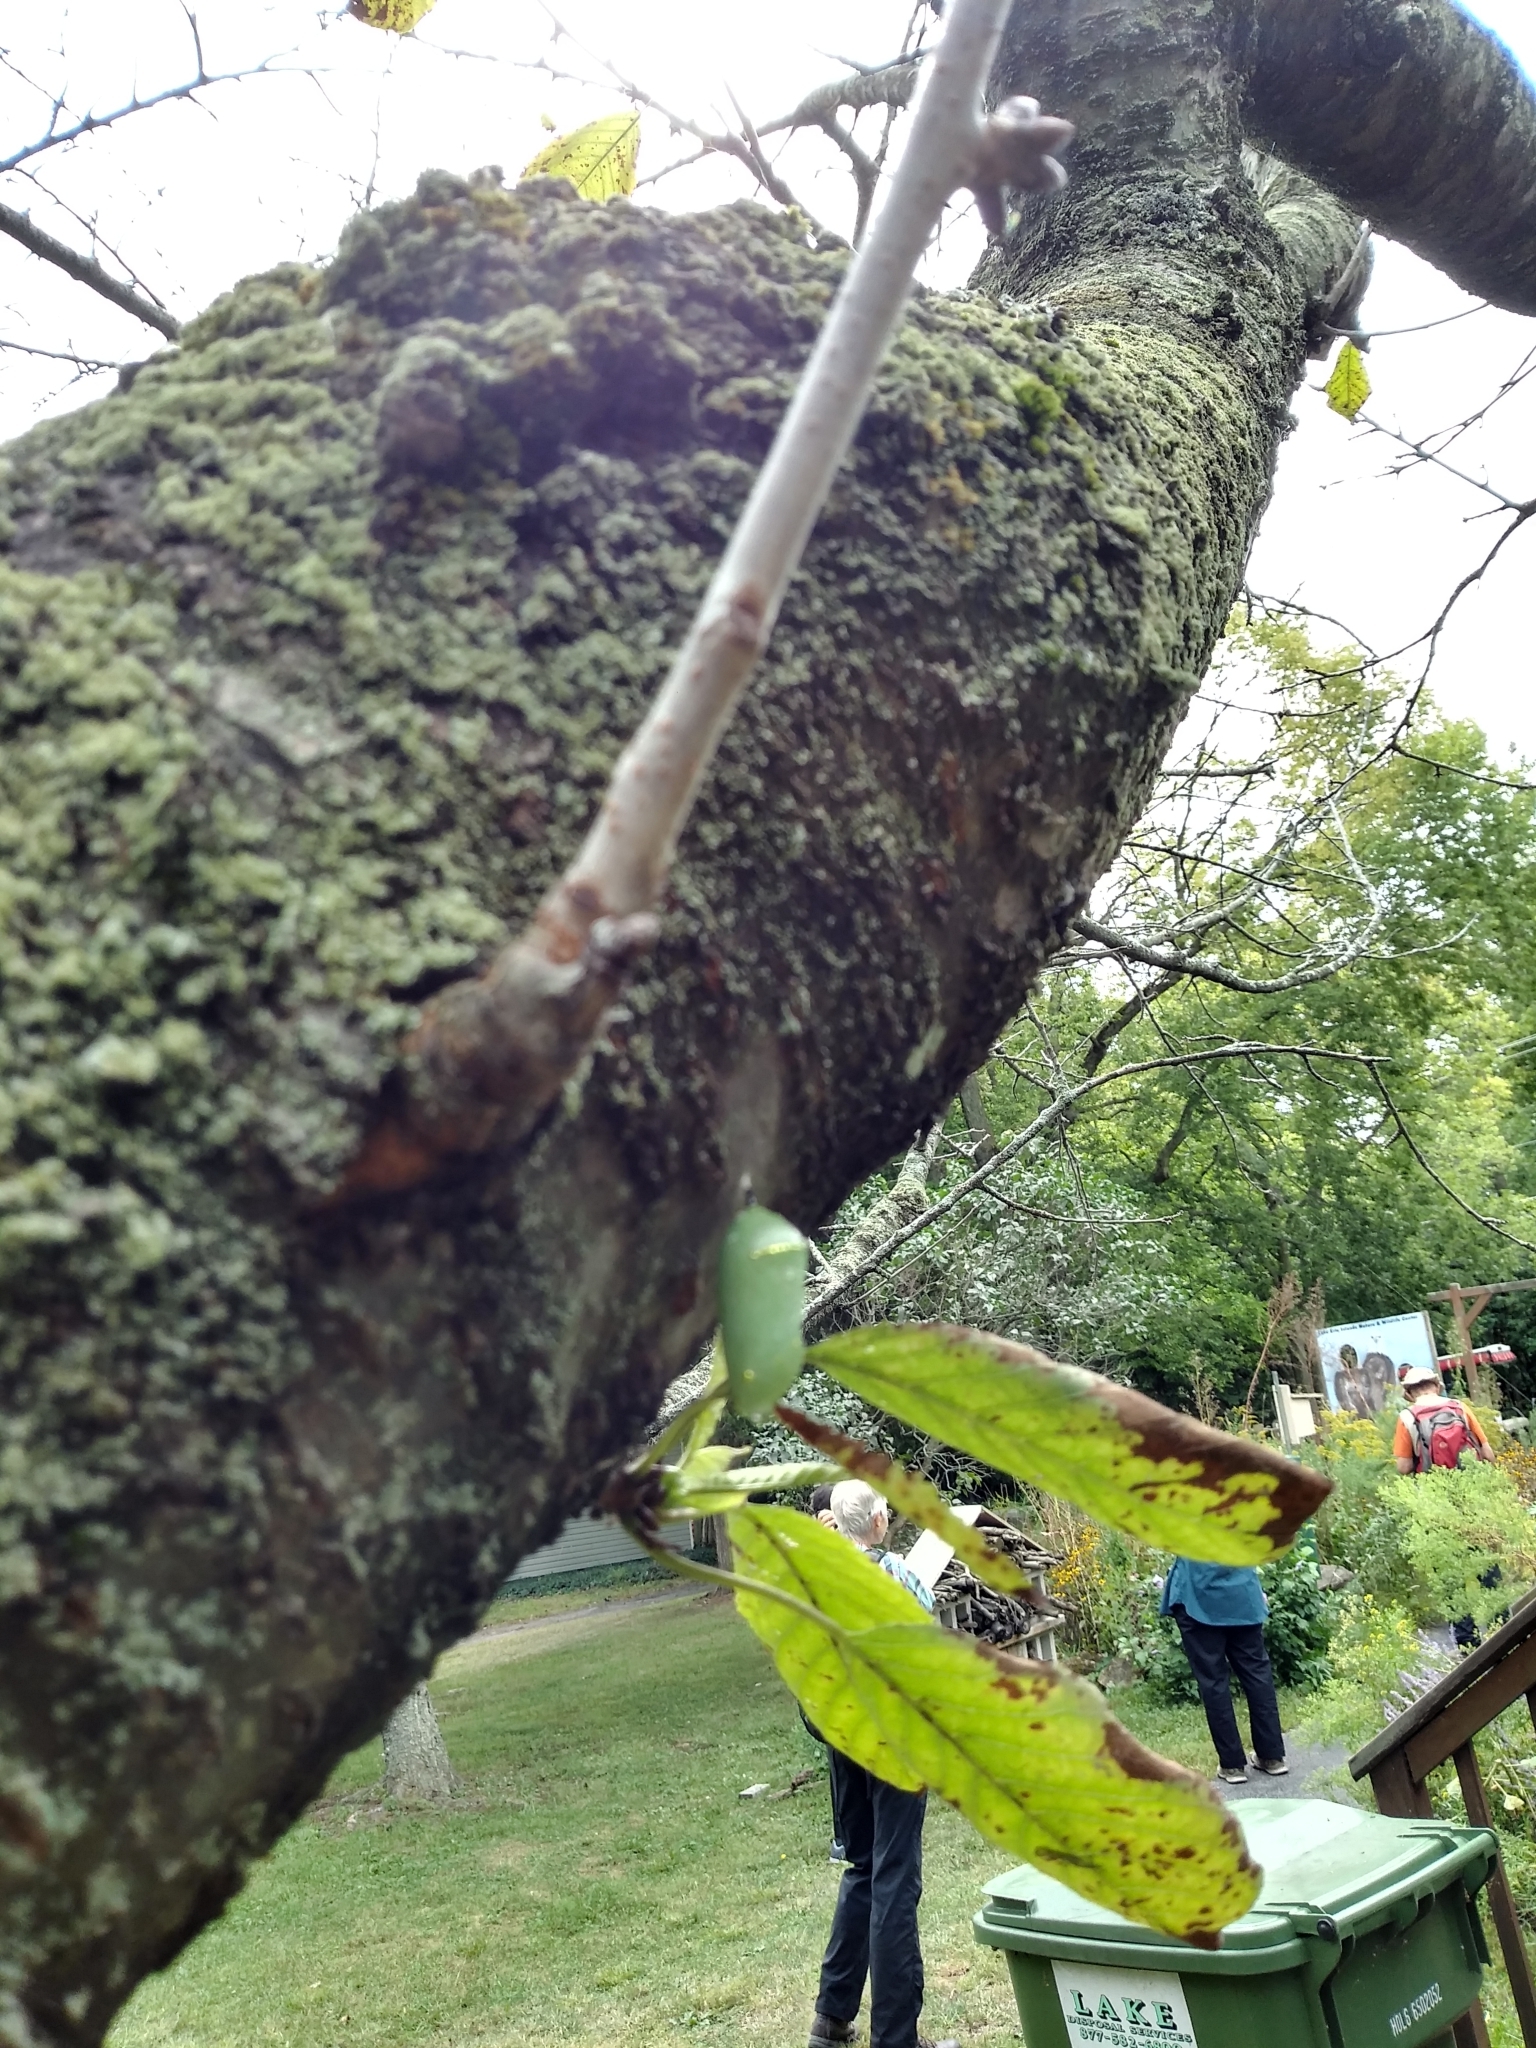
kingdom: Animalia
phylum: Arthropoda
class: Insecta
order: Lepidoptera
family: Nymphalidae
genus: Danaus
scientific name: Danaus plexippus
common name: Monarch
